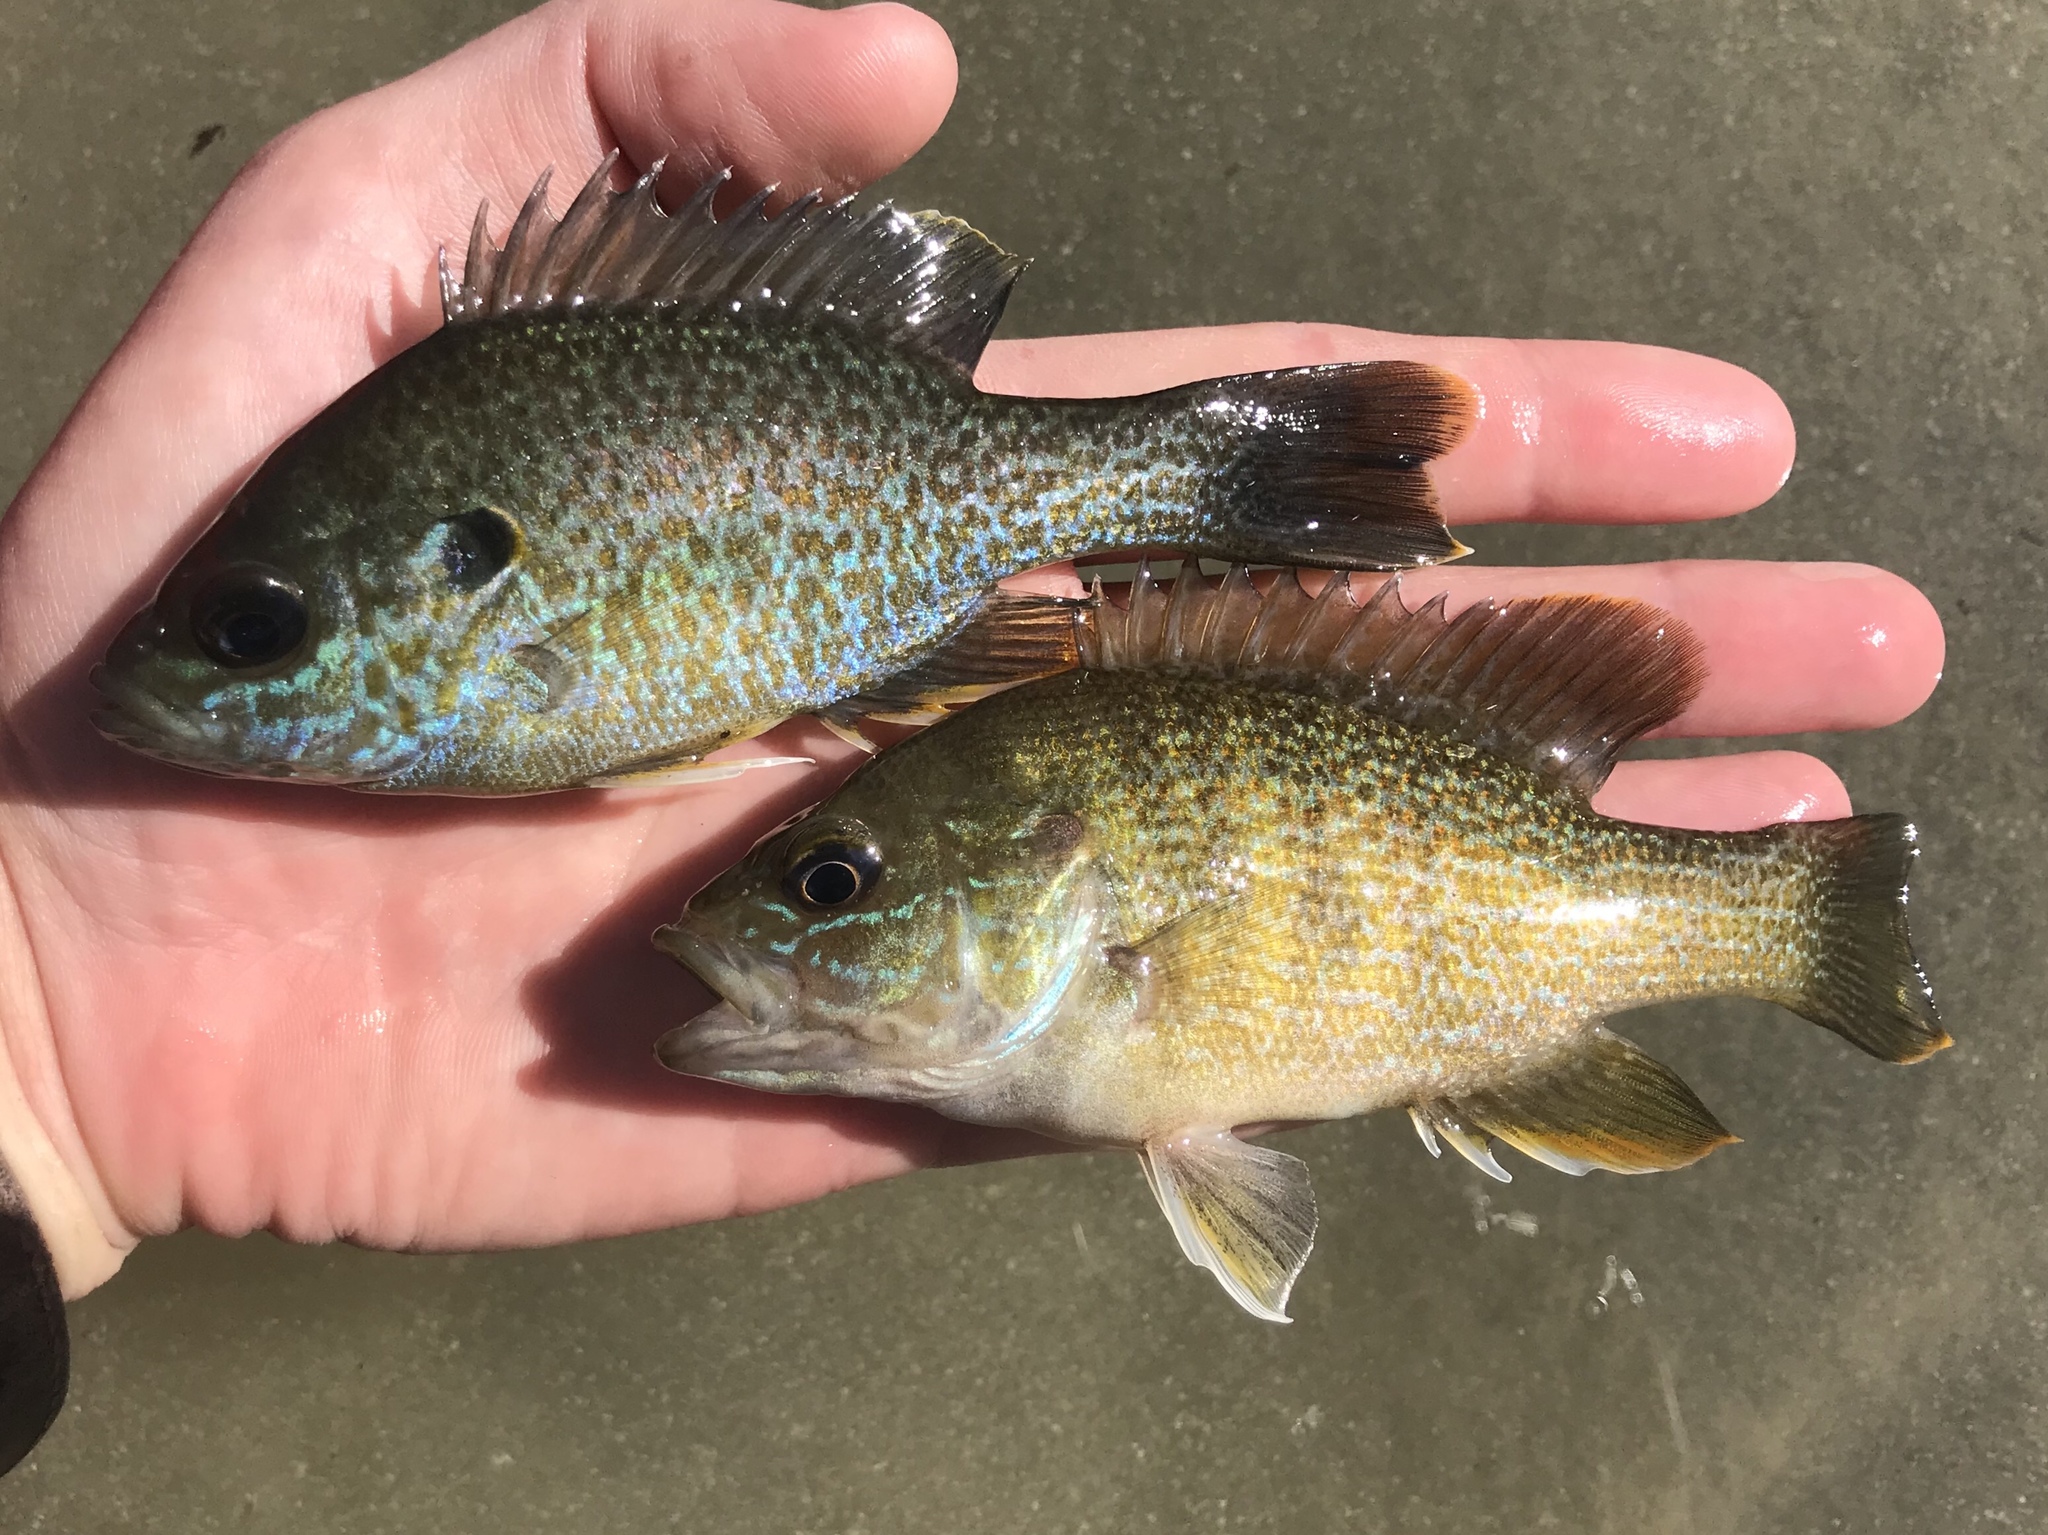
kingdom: Animalia
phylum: Chordata
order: Perciformes
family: Centrarchidae
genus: Lepomis
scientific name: Lepomis
